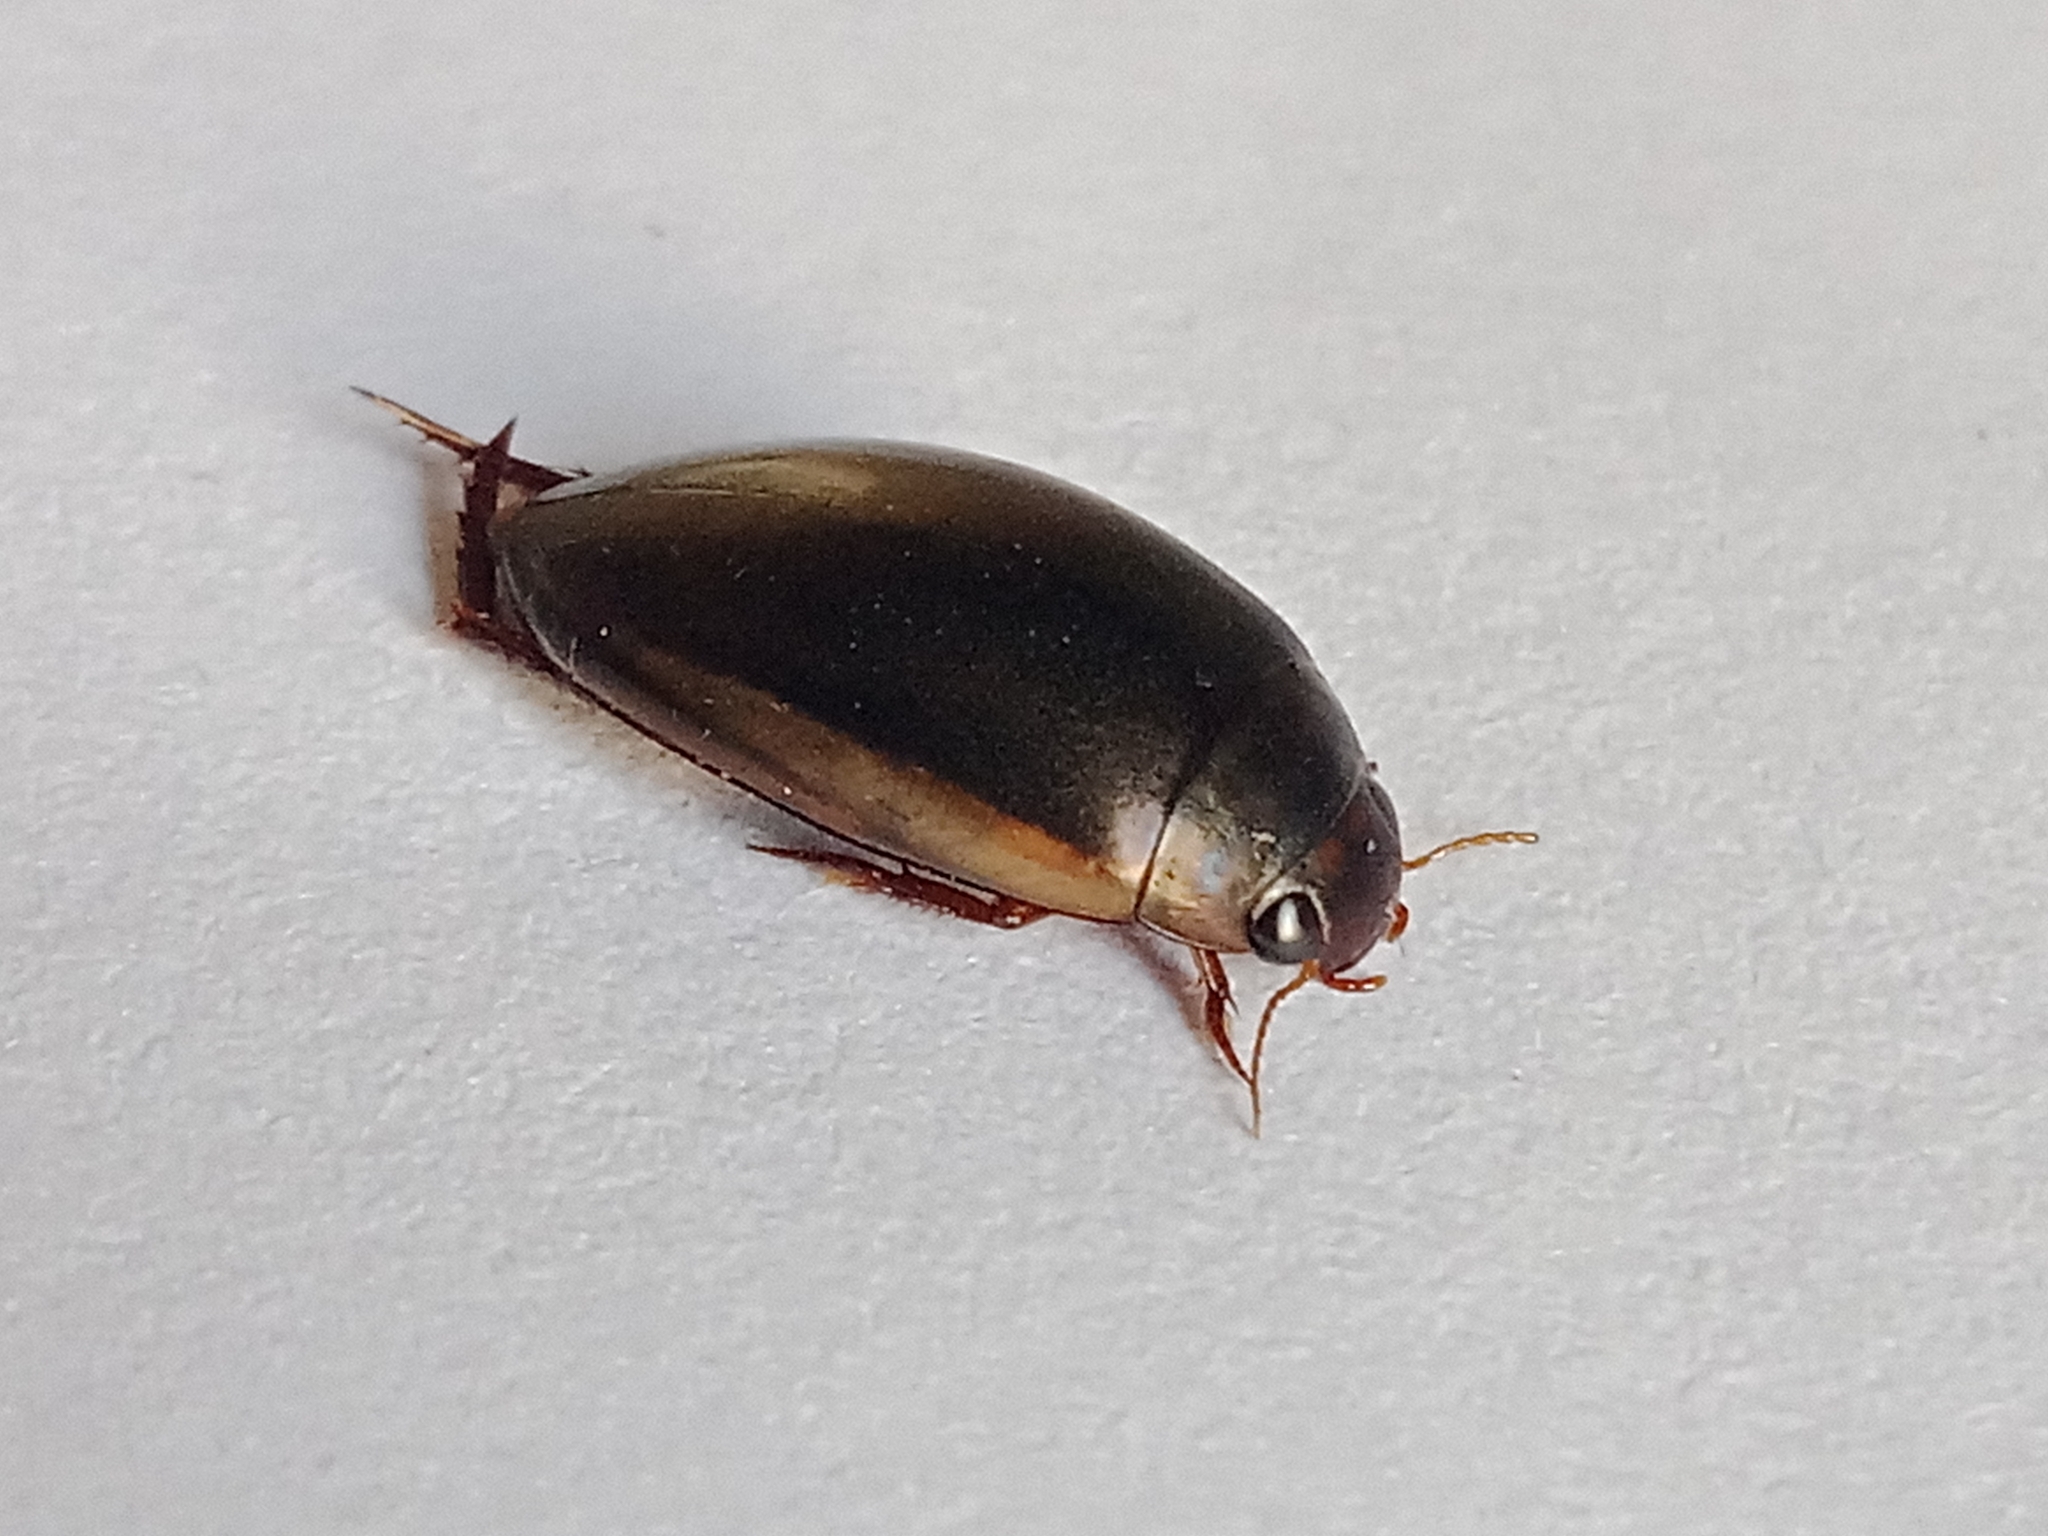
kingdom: Animalia
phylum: Arthropoda
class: Insecta
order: Coleoptera
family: Dytiscidae
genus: Ilybius
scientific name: Ilybius fuliginosus
